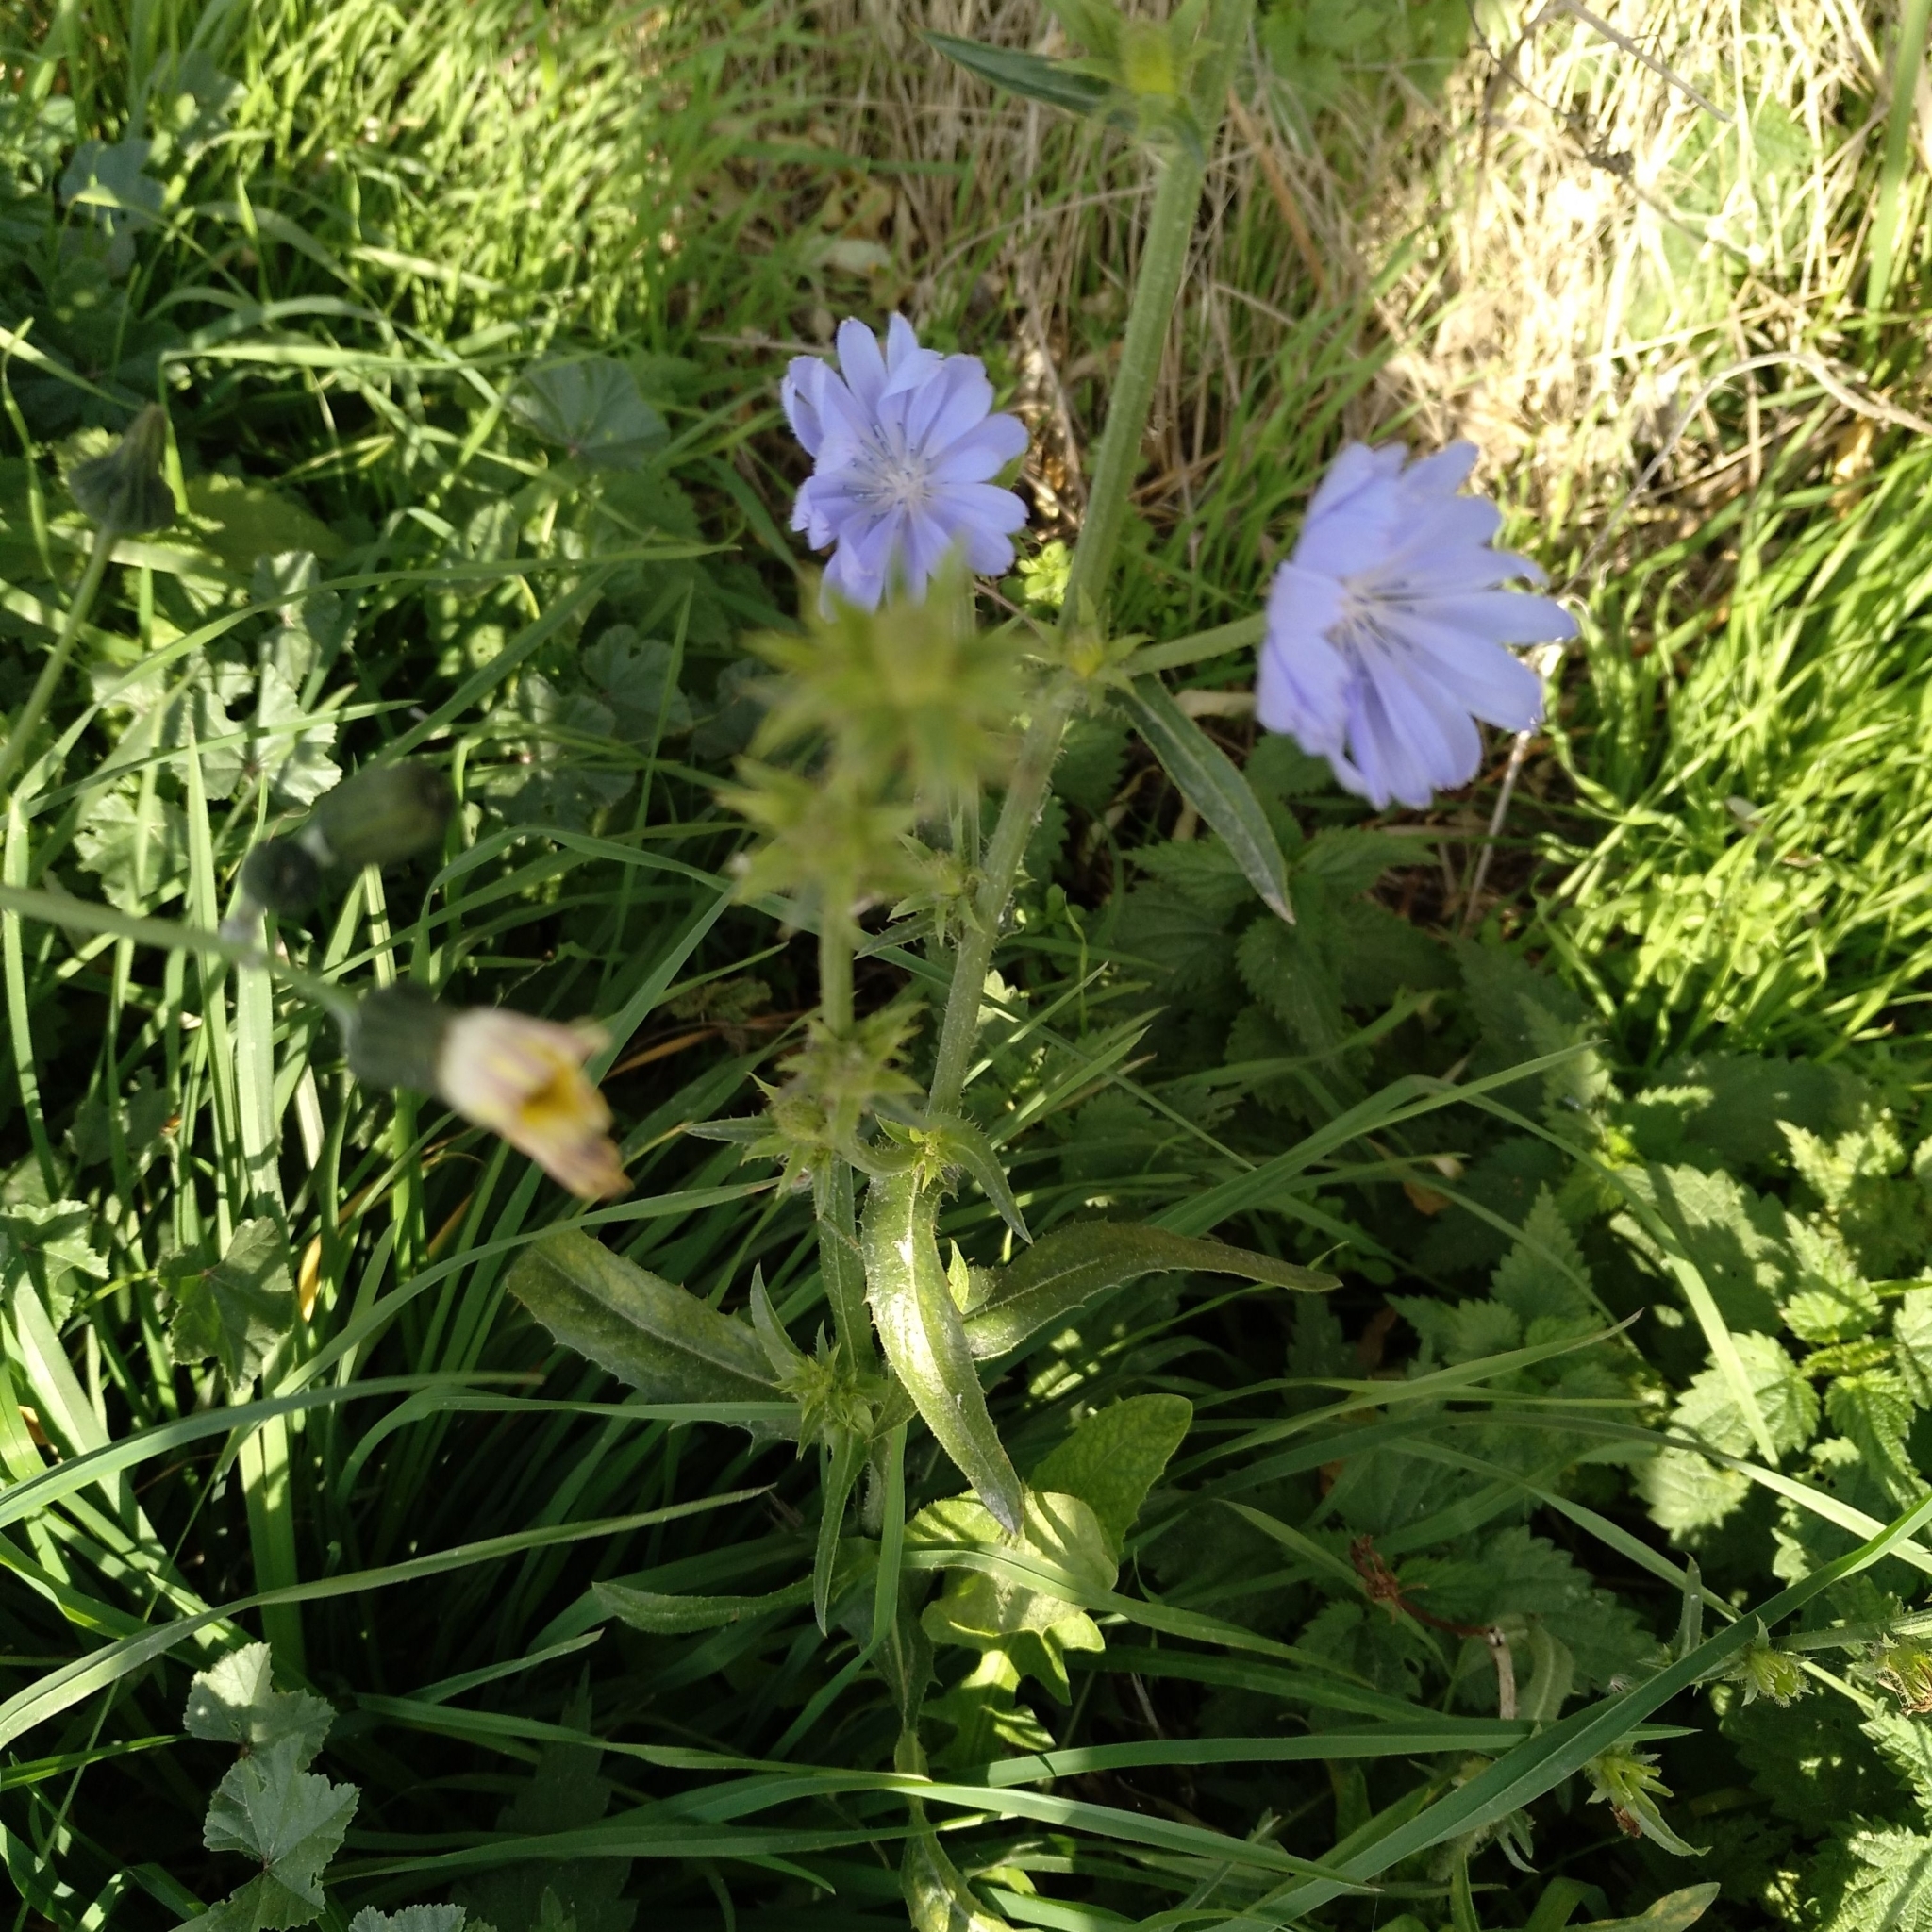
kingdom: Plantae
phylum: Tracheophyta
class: Magnoliopsida
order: Asterales
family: Asteraceae
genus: Cichorium
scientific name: Cichorium intybus
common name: Chicory
